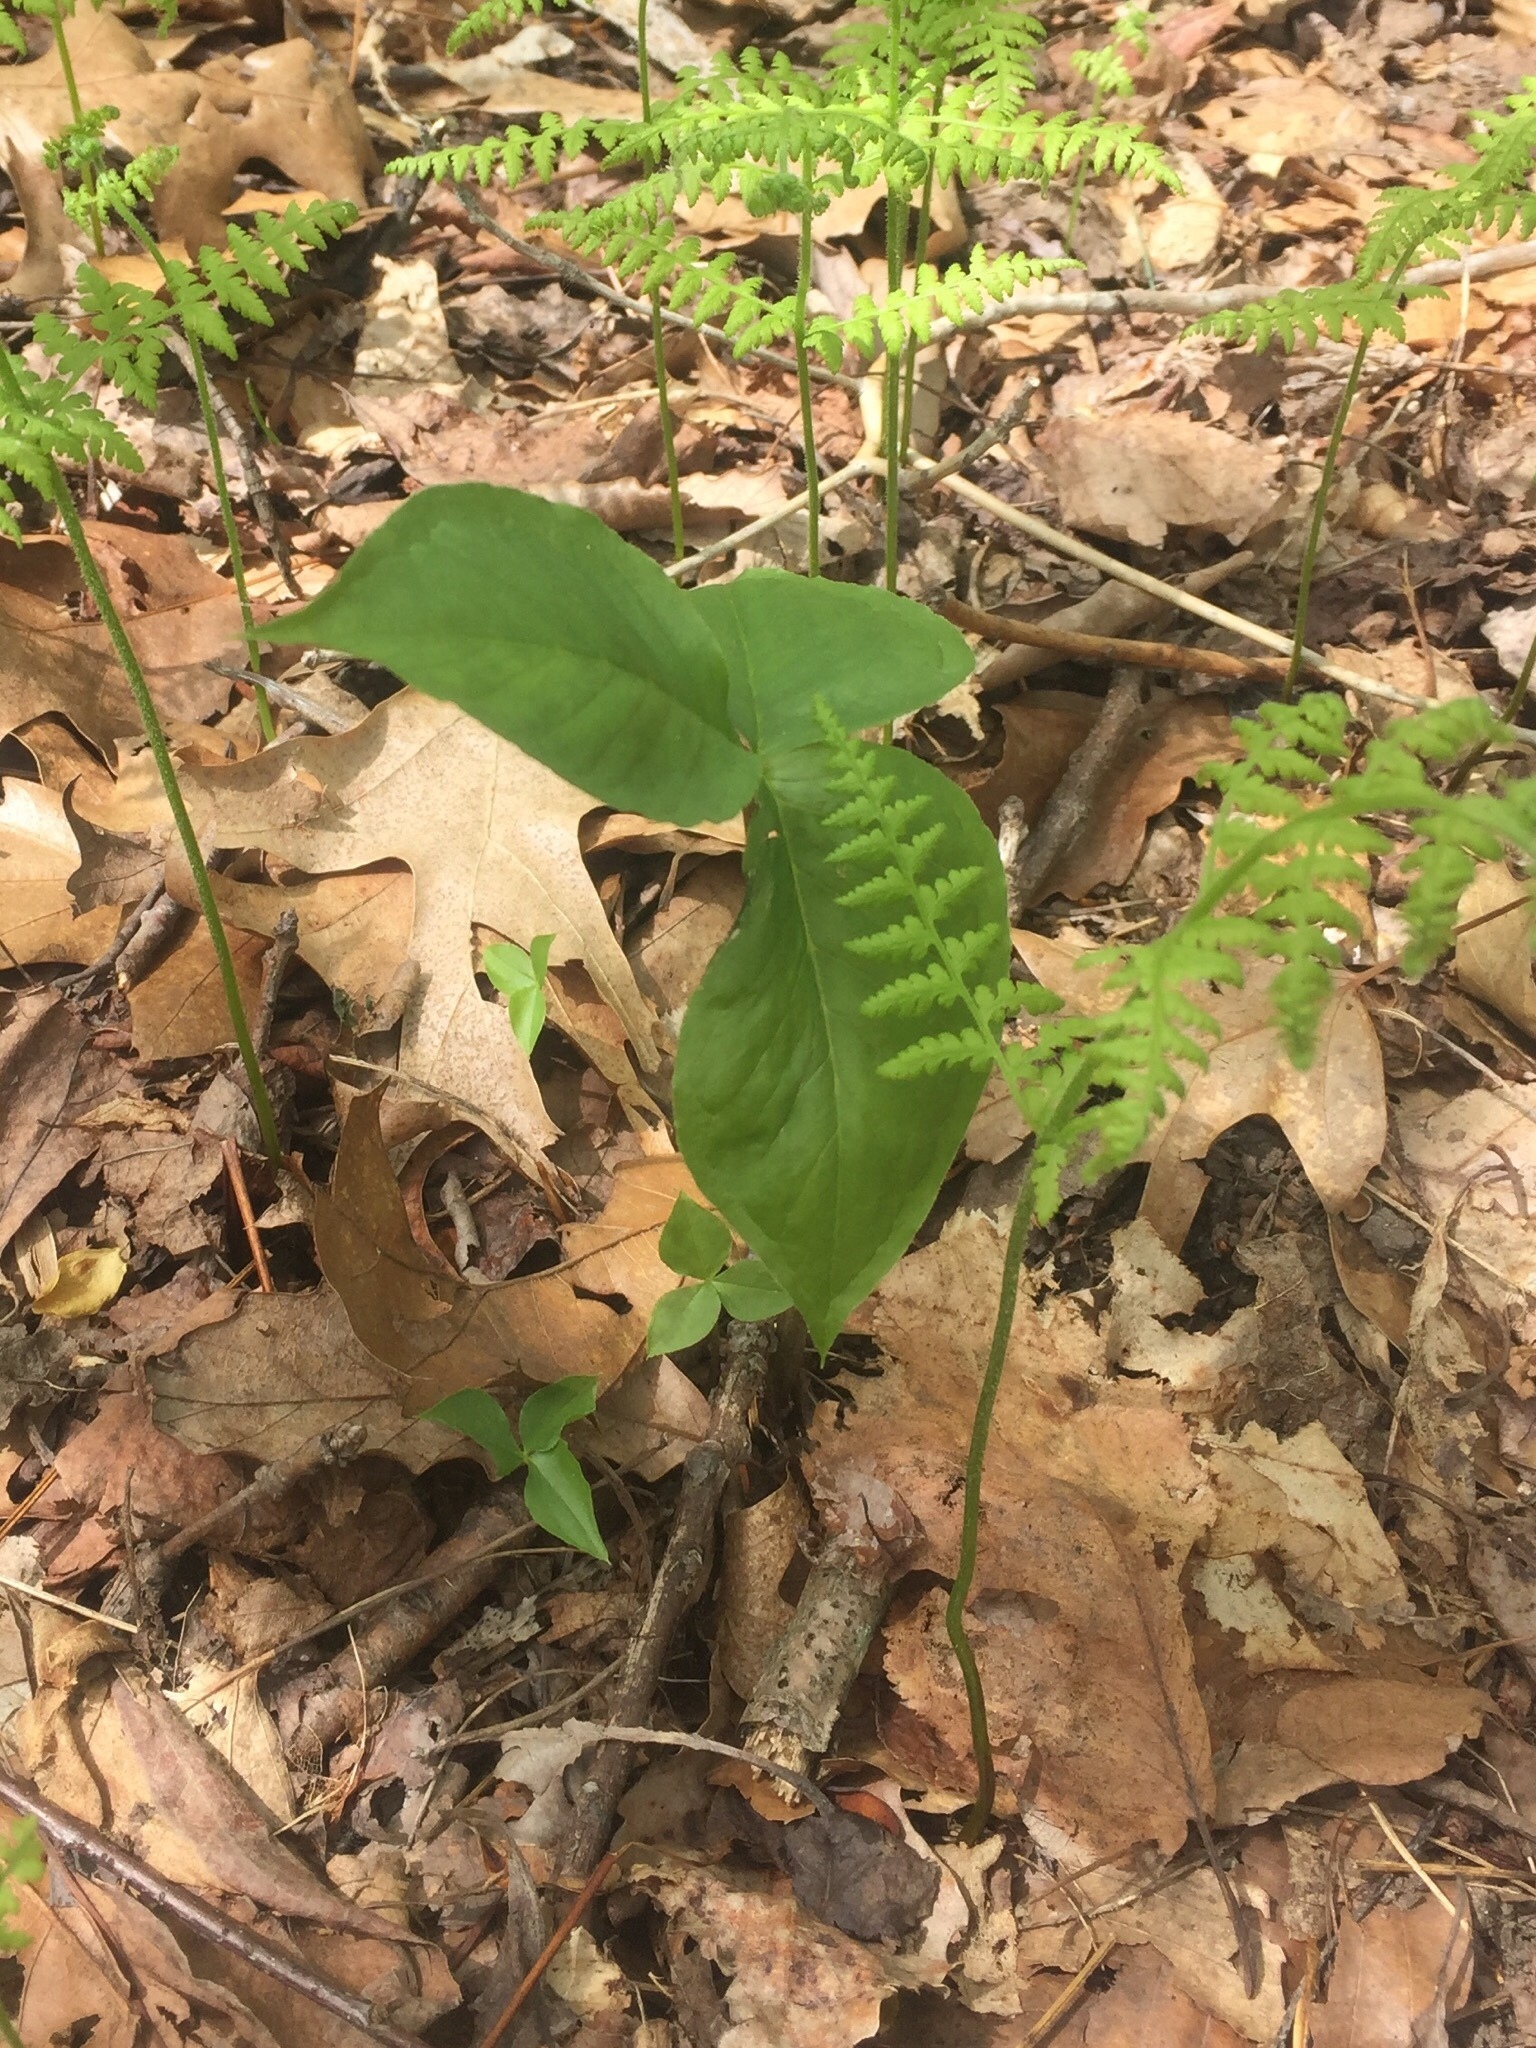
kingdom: Plantae
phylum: Tracheophyta
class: Liliopsida
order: Alismatales
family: Araceae
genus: Arisaema
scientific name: Arisaema triphyllum
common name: Jack-in-the-pulpit
